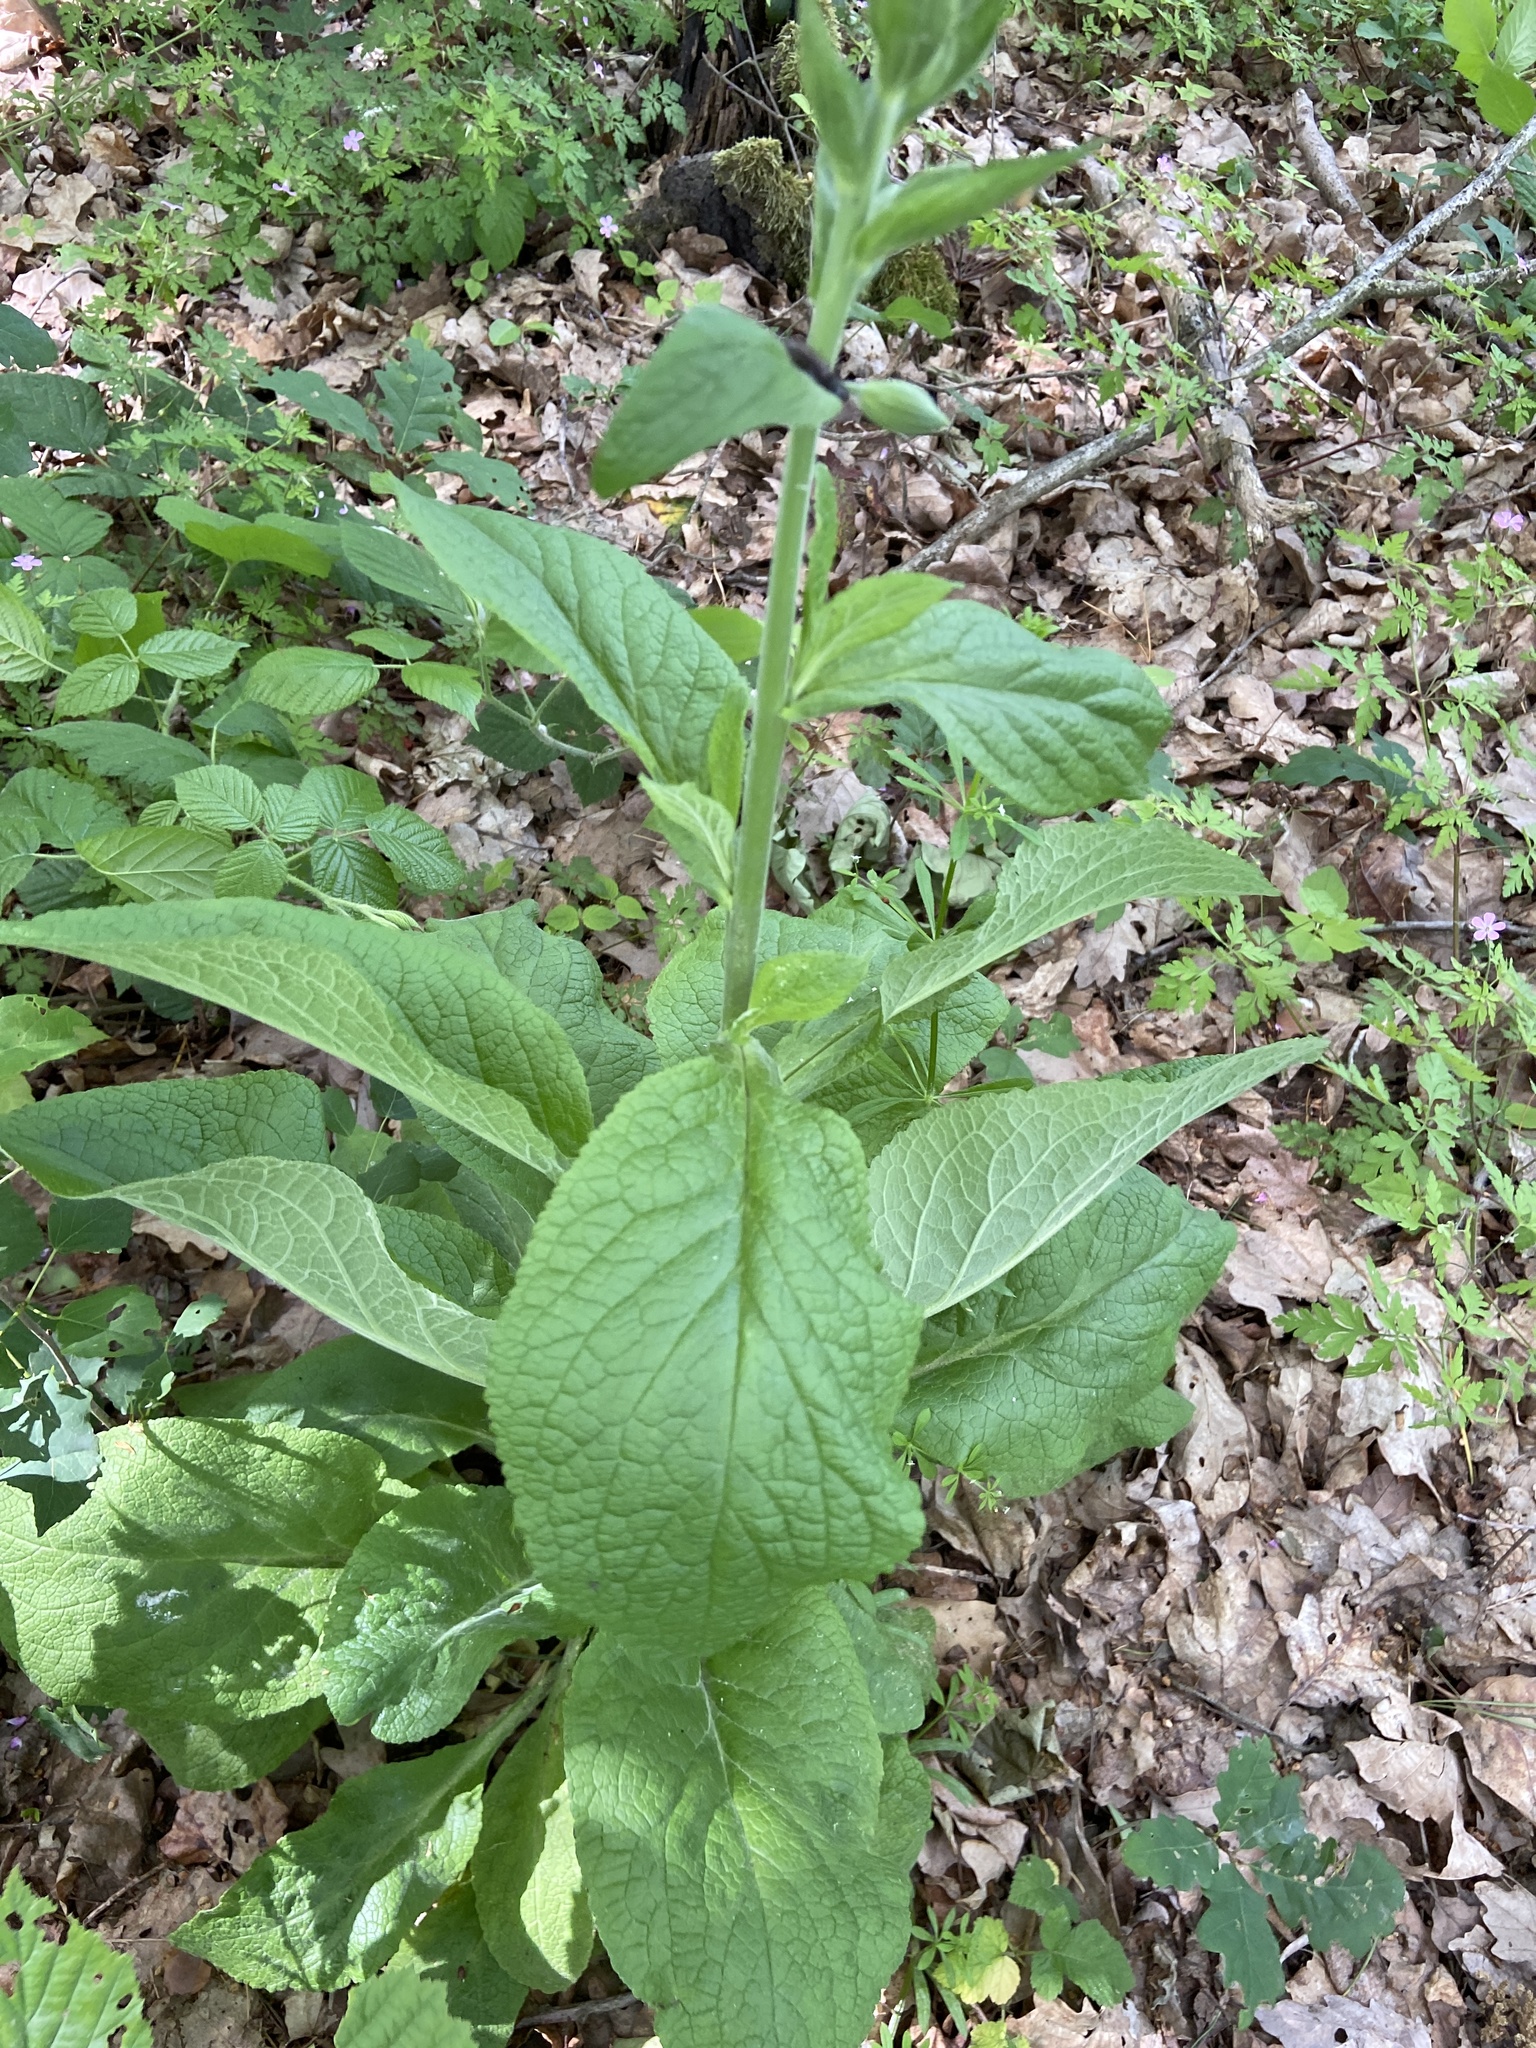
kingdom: Plantae
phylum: Tracheophyta
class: Magnoliopsida
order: Lamiales
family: Plantaginaceae
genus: Digitalis
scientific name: Digitalis purpurea
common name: Foxglove
